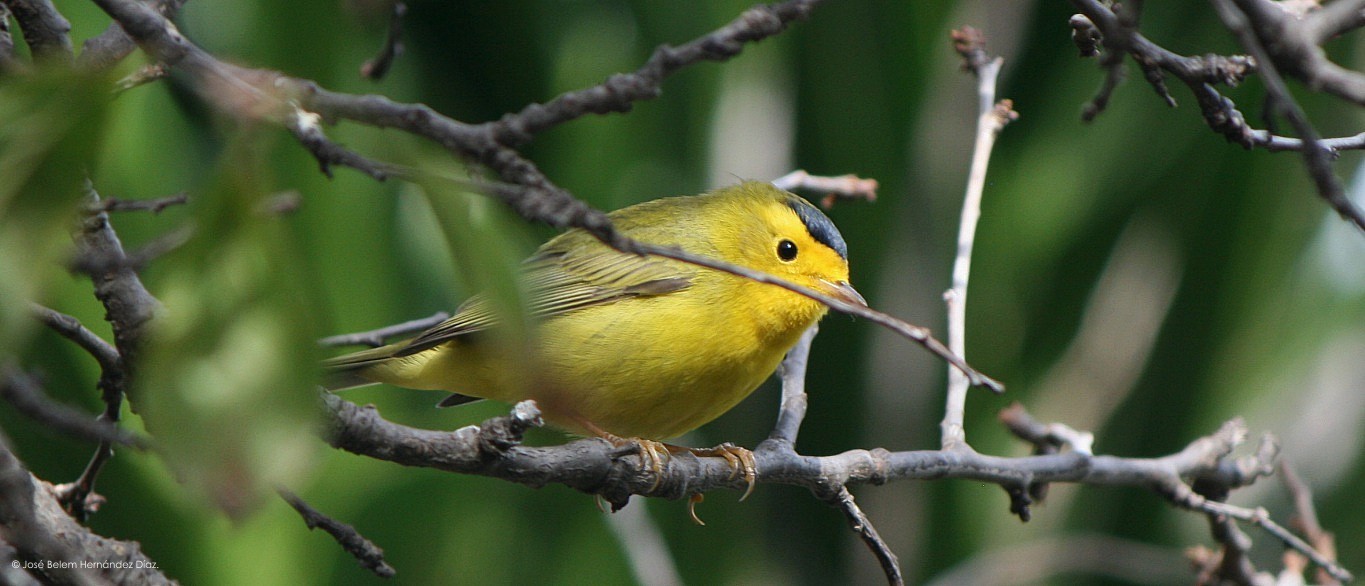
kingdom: Animalia
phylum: Chordata
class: Aves
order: Passeriformes
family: Parulidae
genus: Cardellina
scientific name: Cardellina pusilla
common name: Wilson's warbler
